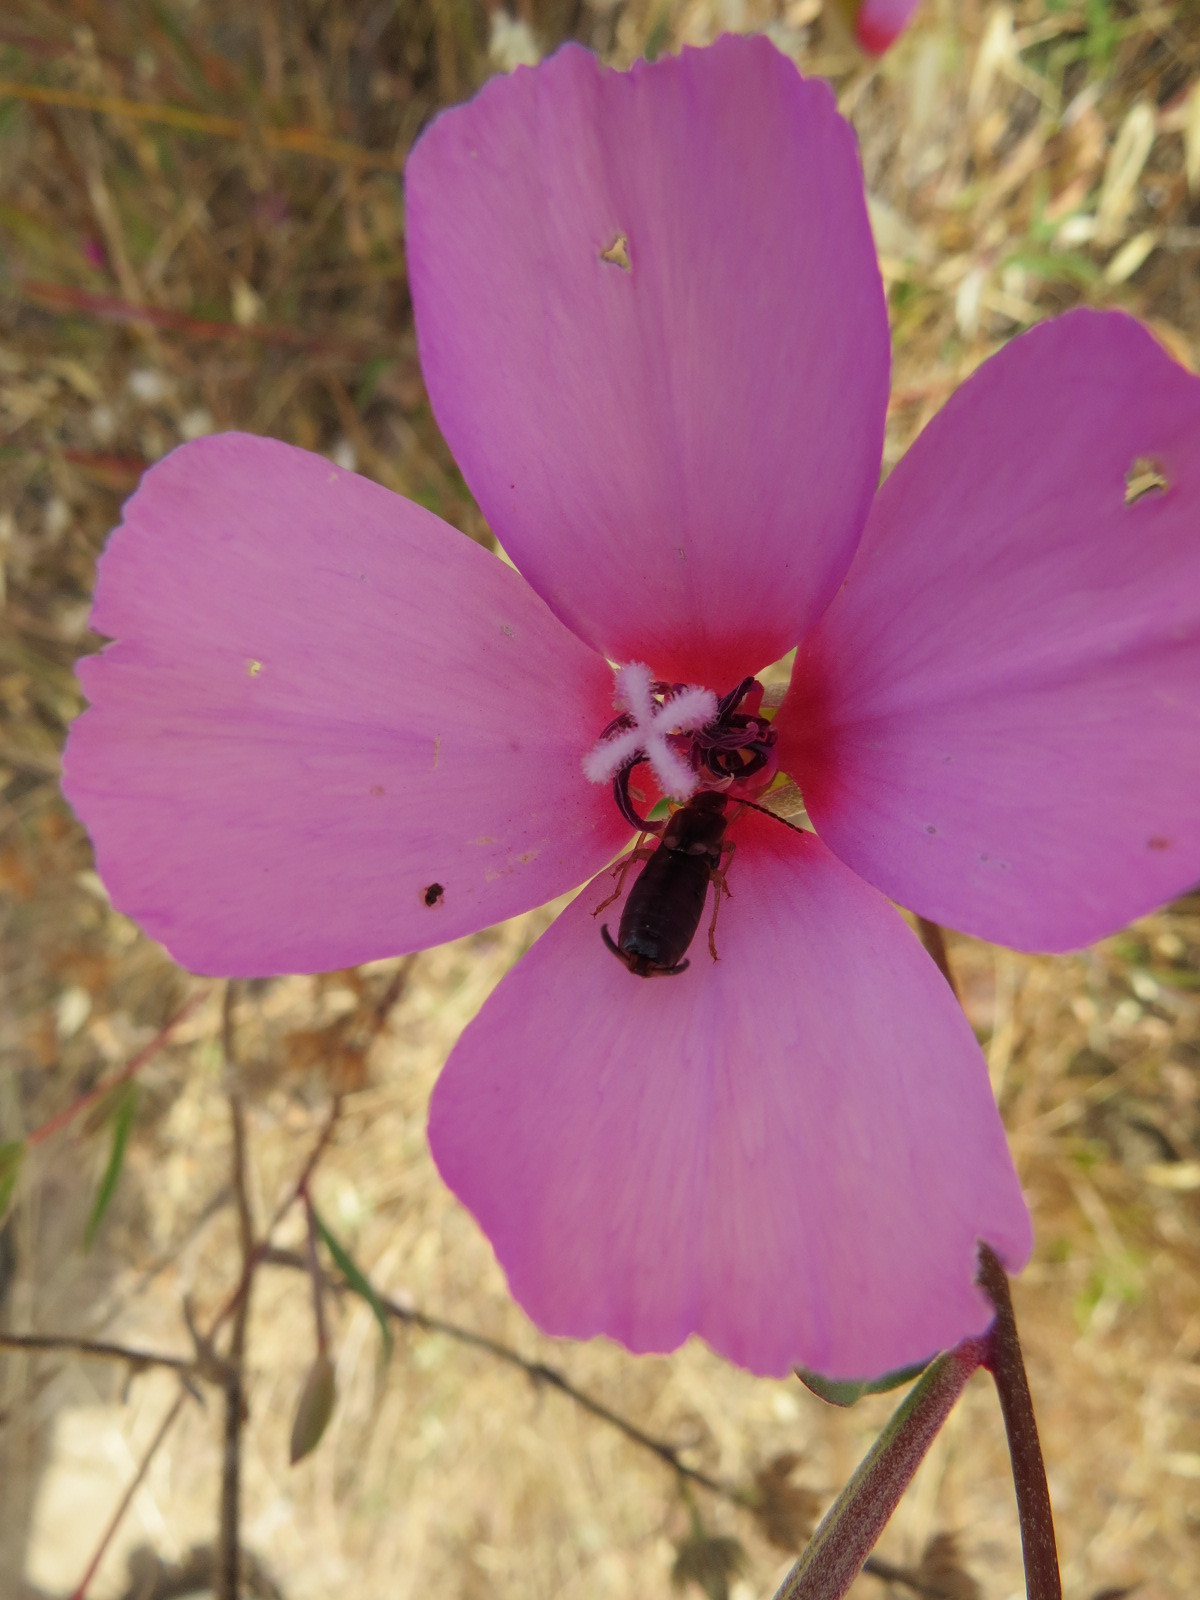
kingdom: Plantae
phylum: Tracheophyta
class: Magnoliopsida
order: Myrtales
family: Onagraceae
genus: Clarkia
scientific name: Clarkia rubicunda
